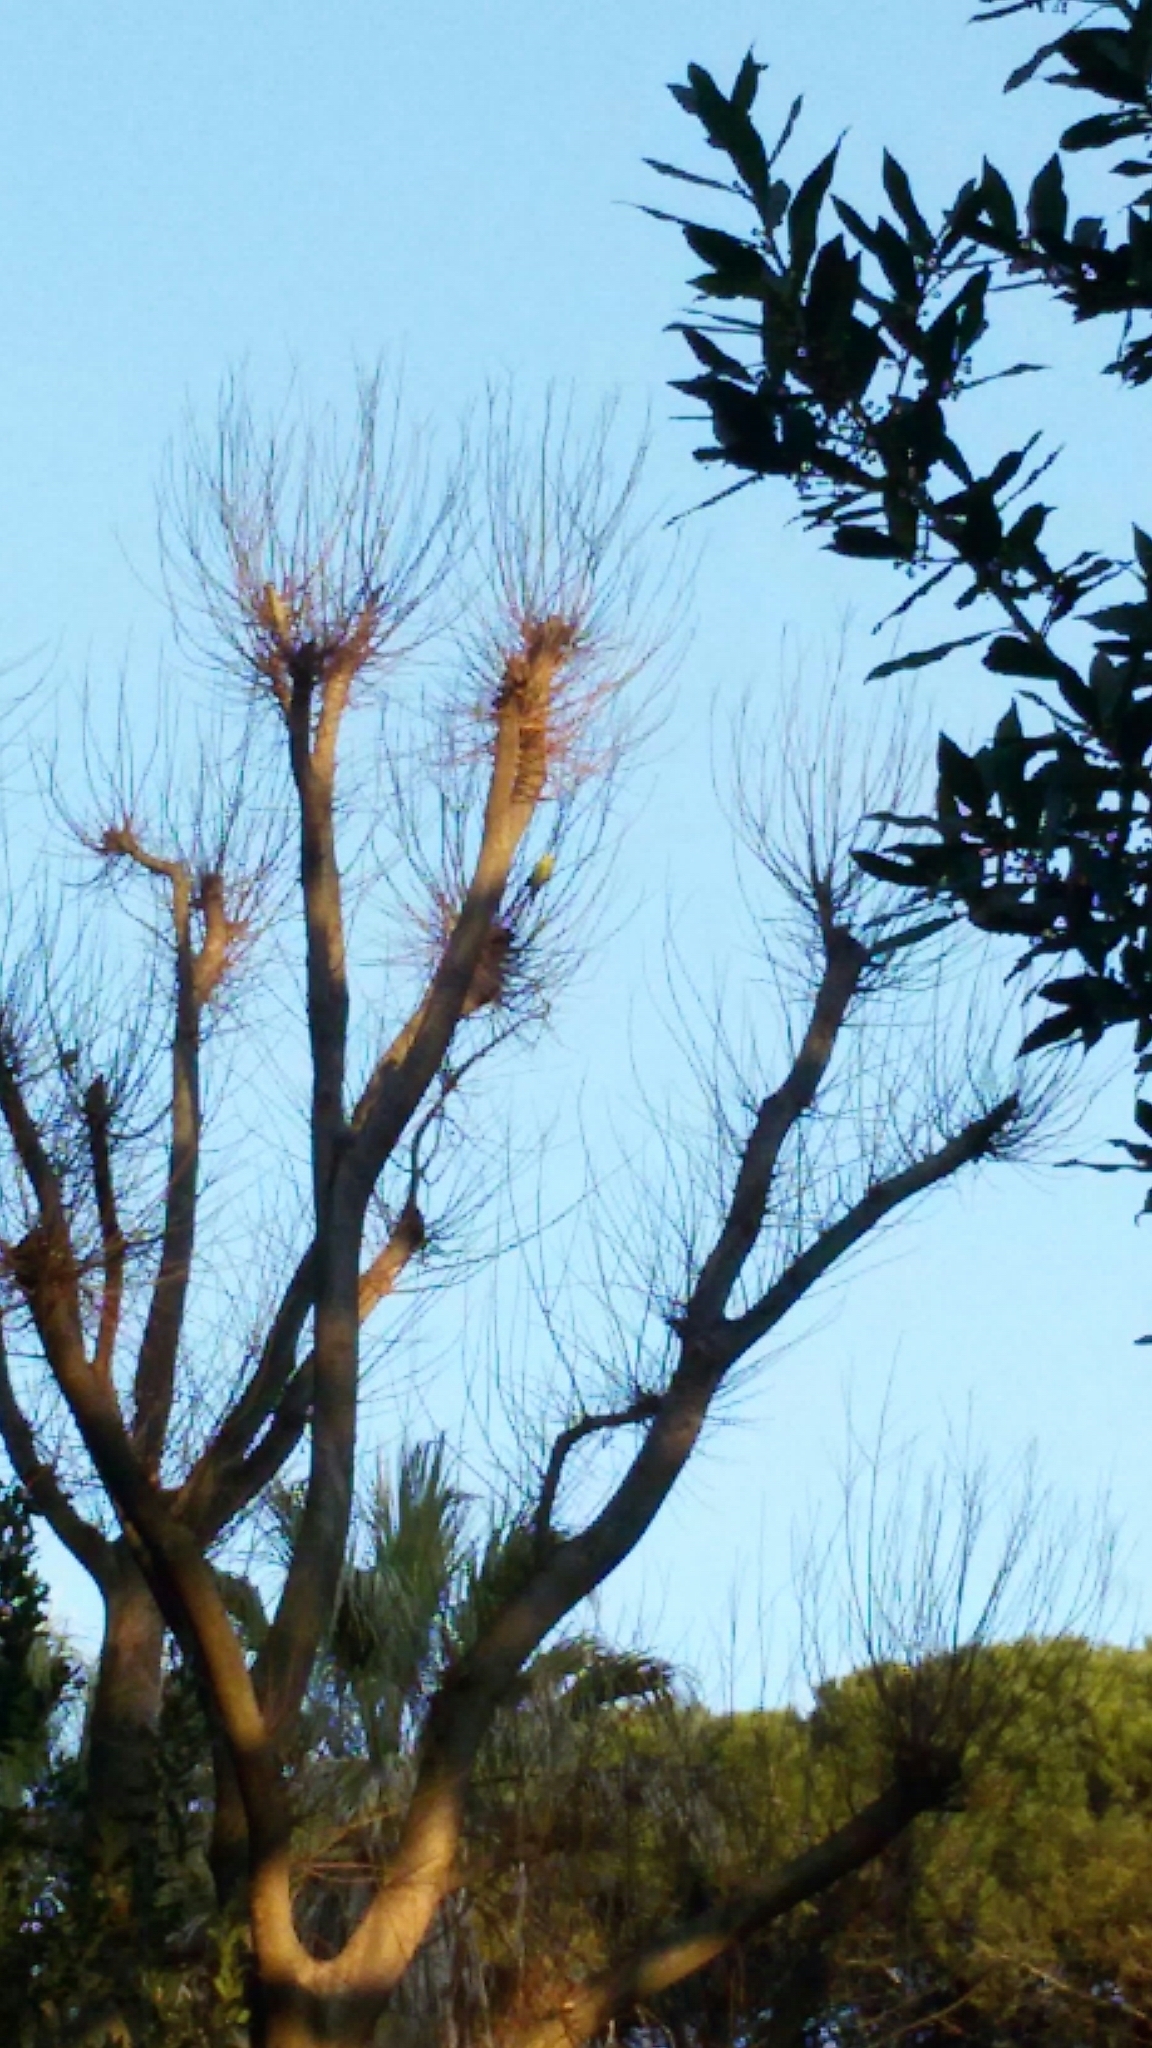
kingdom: Animalia
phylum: Chordata
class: Aves
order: Psittaciformes
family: Psittacidae
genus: Psittacula
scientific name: Psittacula krameri
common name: Rose-ringed parakeet
